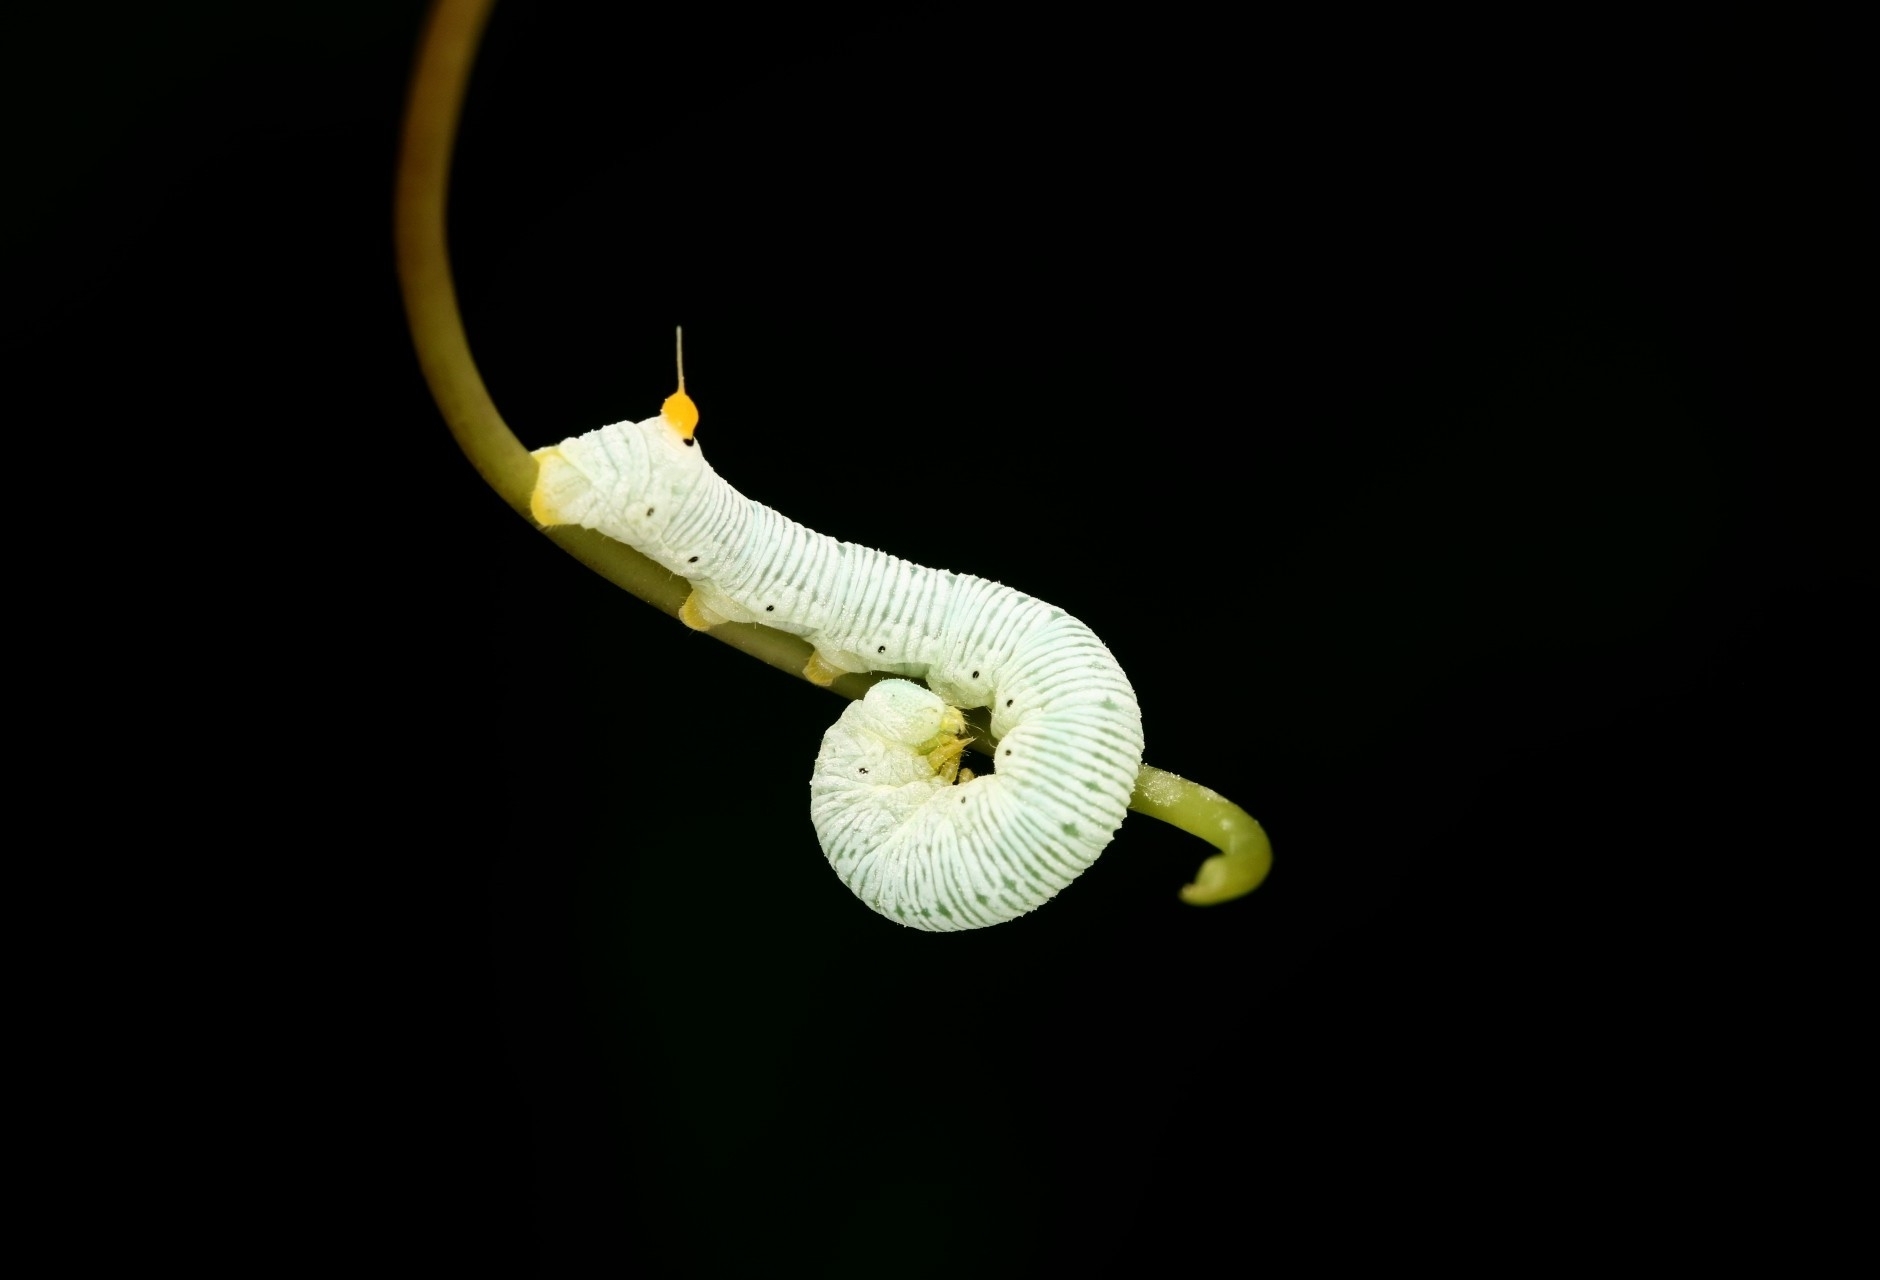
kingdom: Animalia
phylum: Arthropoda
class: Insecta
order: Lepidoptera
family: Sphingidae
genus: Sphecodina
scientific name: Sphecodina abbottii
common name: Abbott's sphinx
